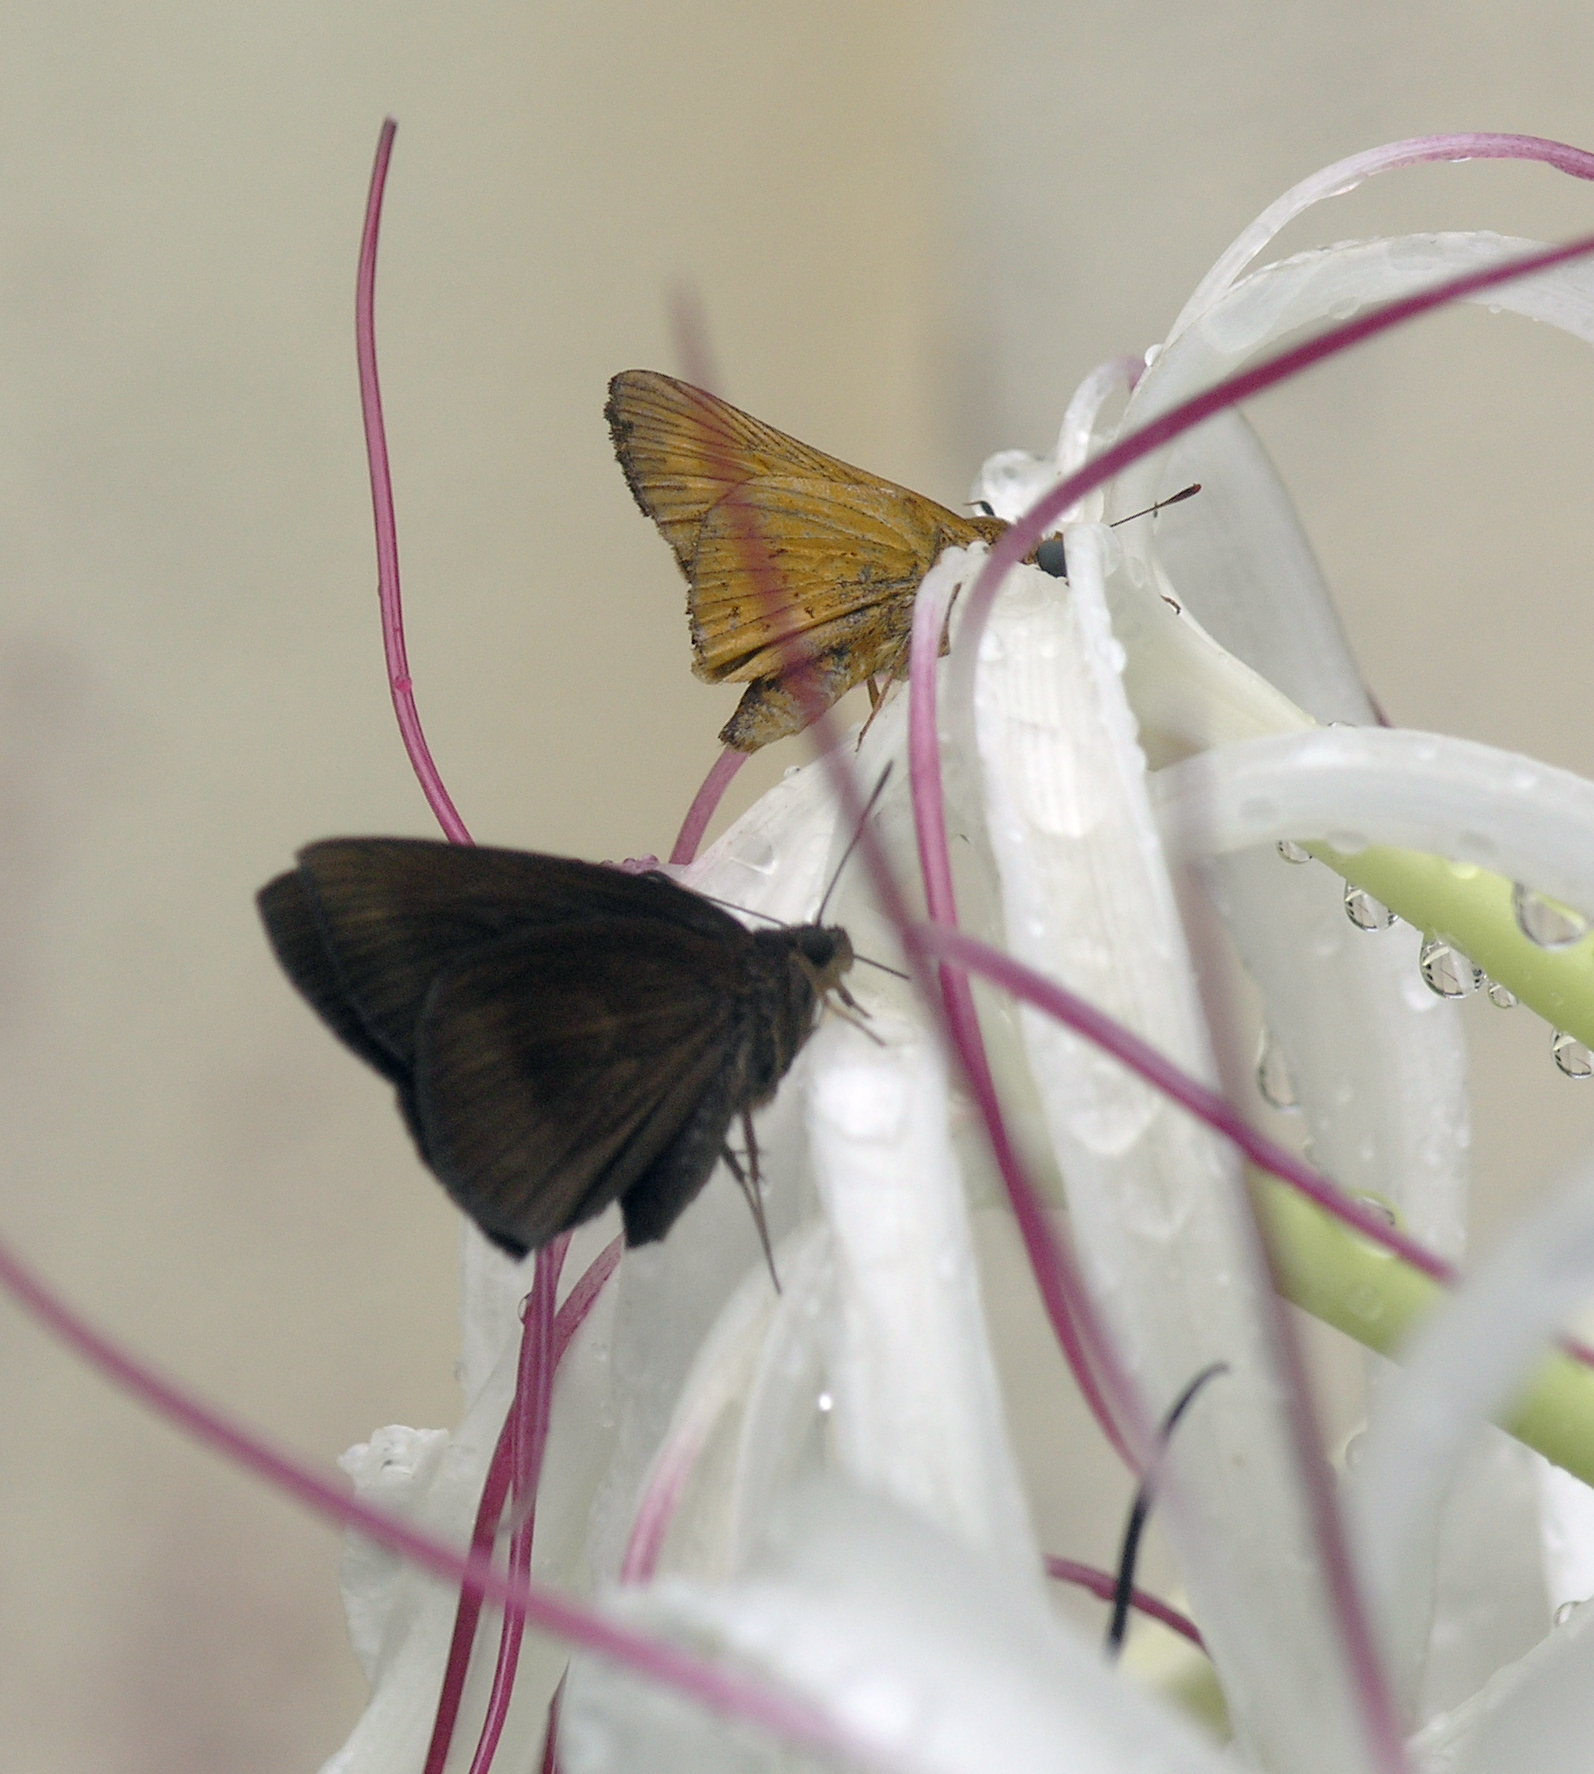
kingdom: Animalia
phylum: Arthropoda
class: Insecta
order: Lepidoptera
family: Hesperiidae
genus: Ancistroides
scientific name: Ancistroides nigrita
